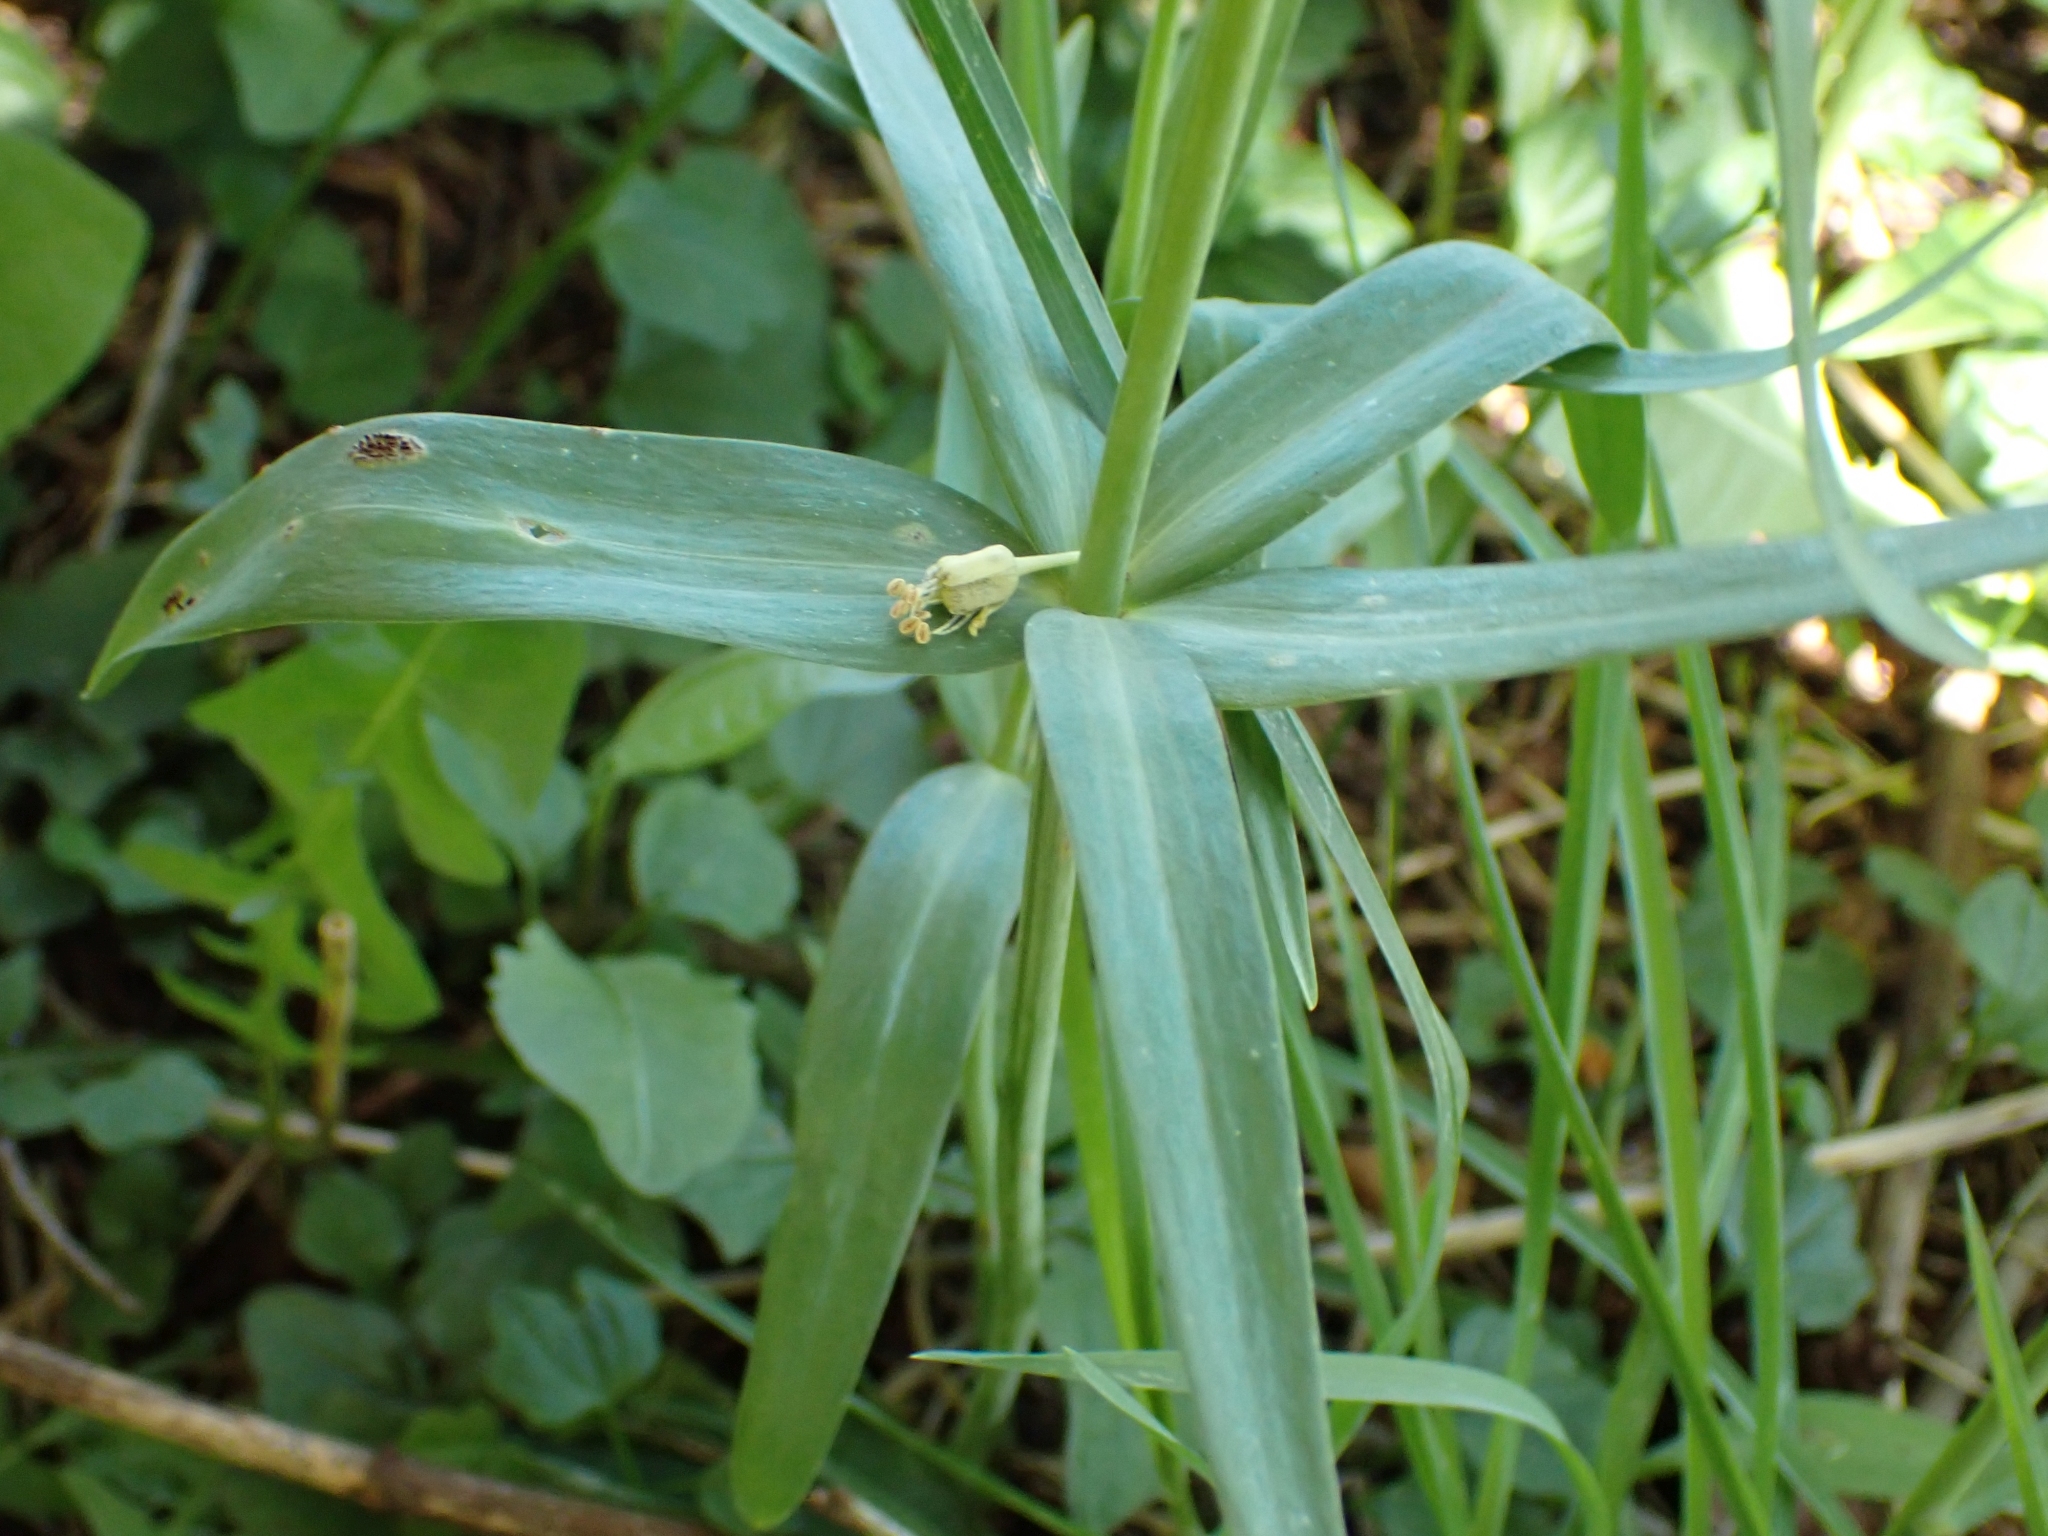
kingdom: Plantae
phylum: Tracheophyta
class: Liliopsida
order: Liliales
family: Liliaceae
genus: Fritillaria
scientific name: Fritillaria affinis
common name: Ojai fritillary
